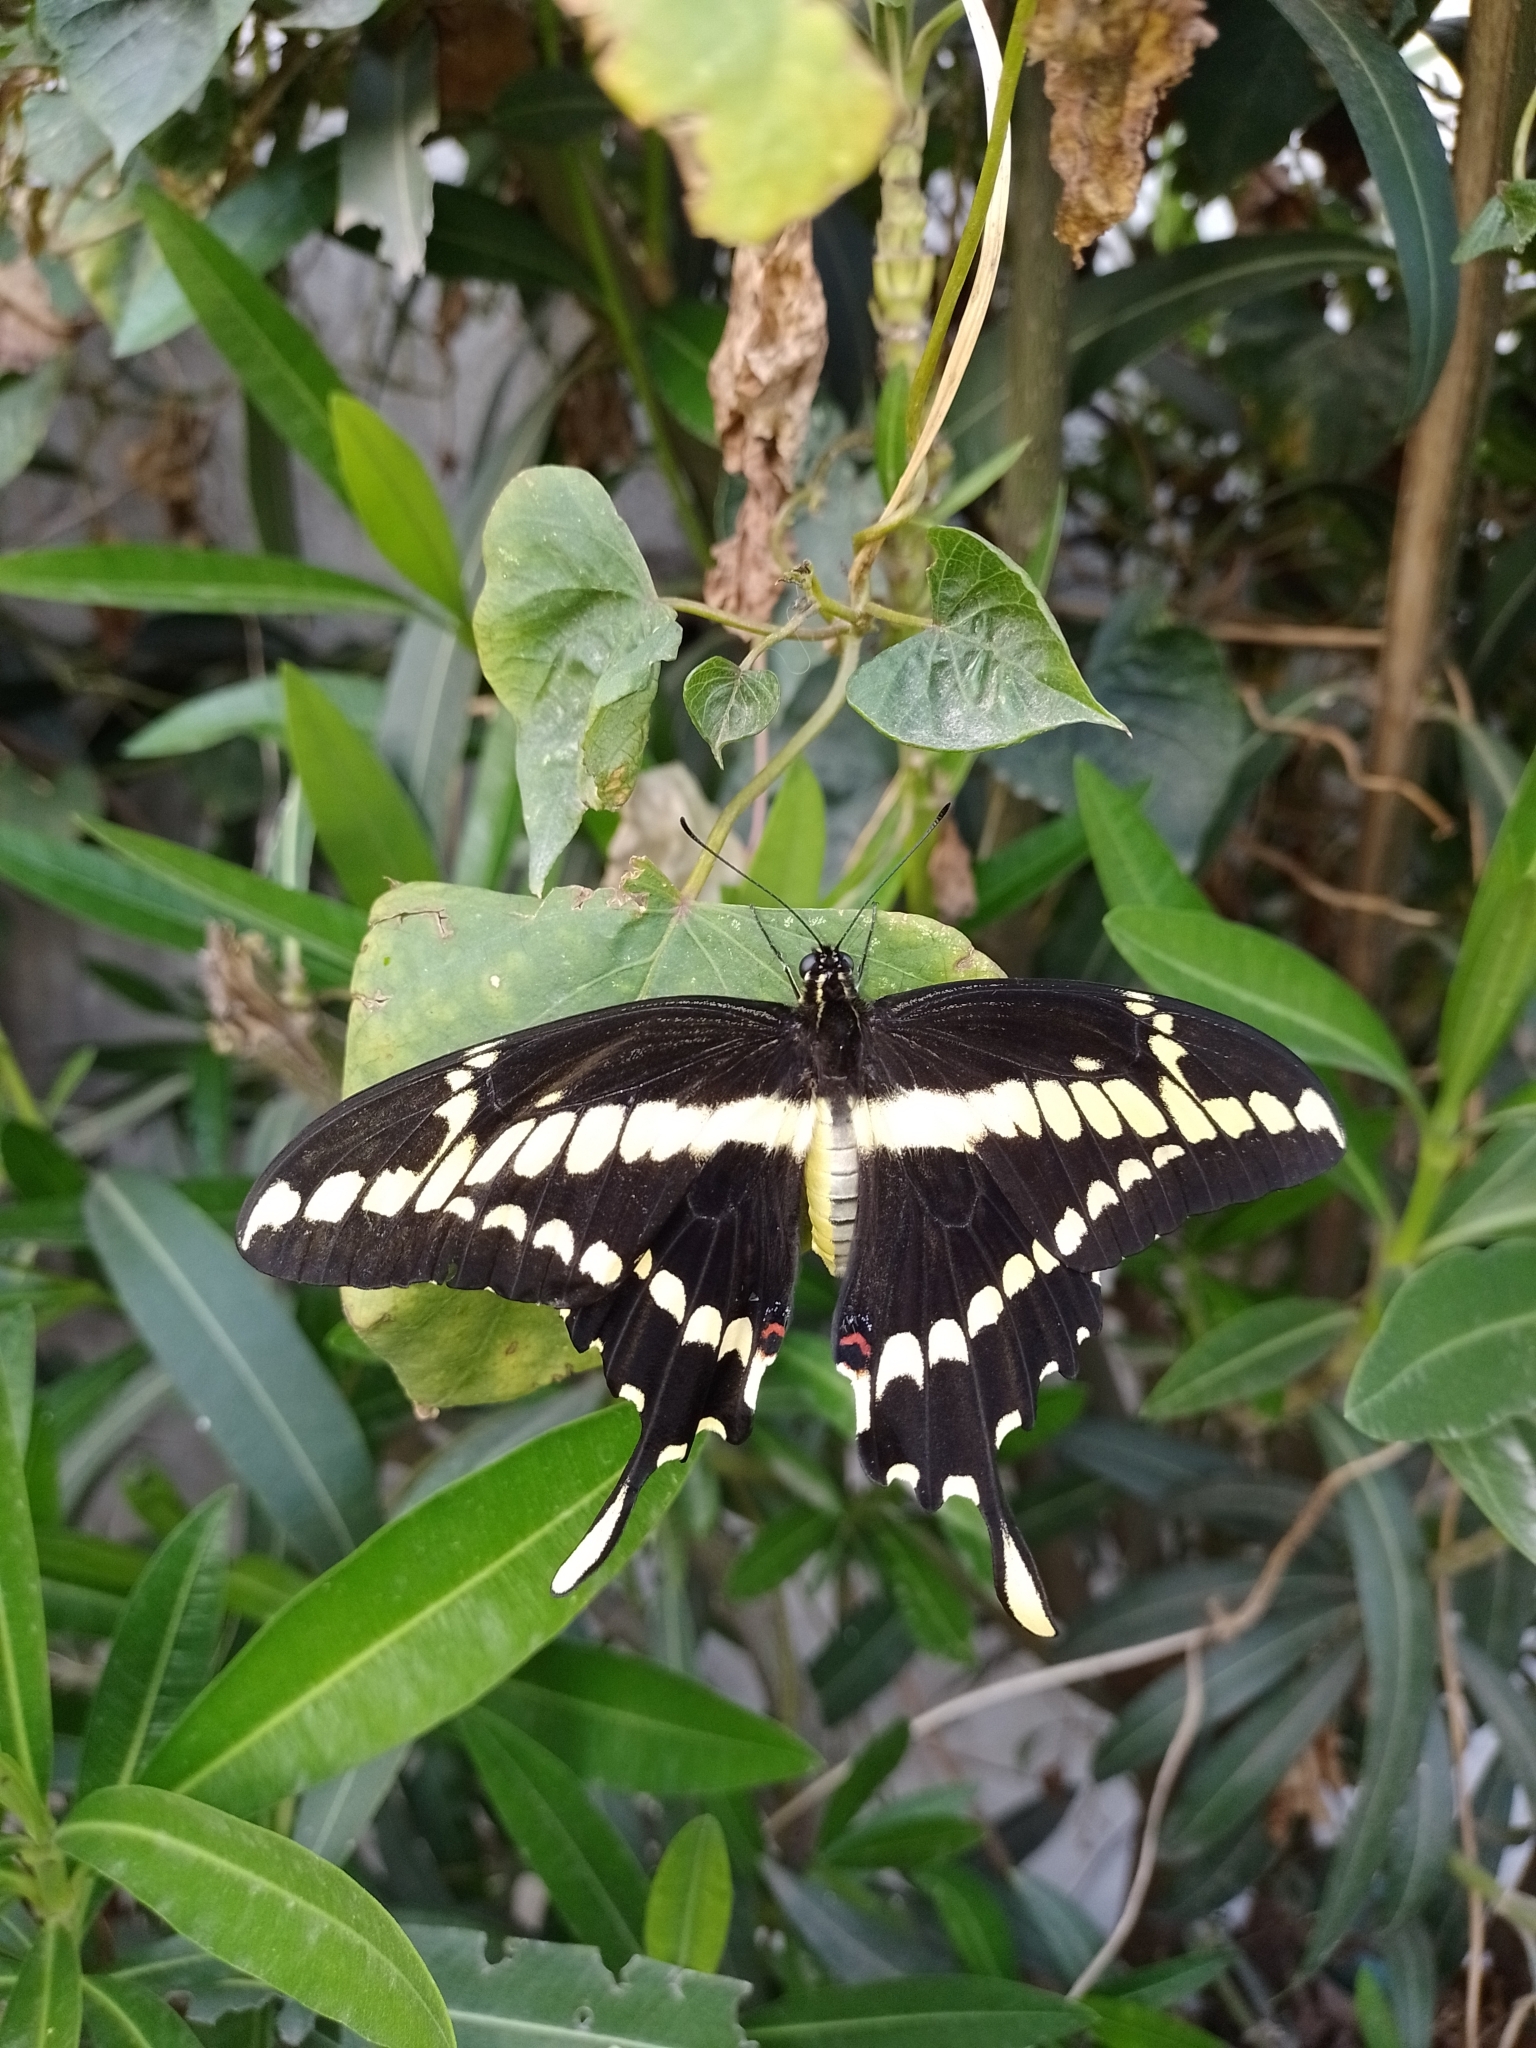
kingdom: Animalia
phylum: Arthropoda
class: Insecta
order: Lepidoptera
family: Papilionidae
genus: Papilio
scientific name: Papilio thoas
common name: King swallowtail
